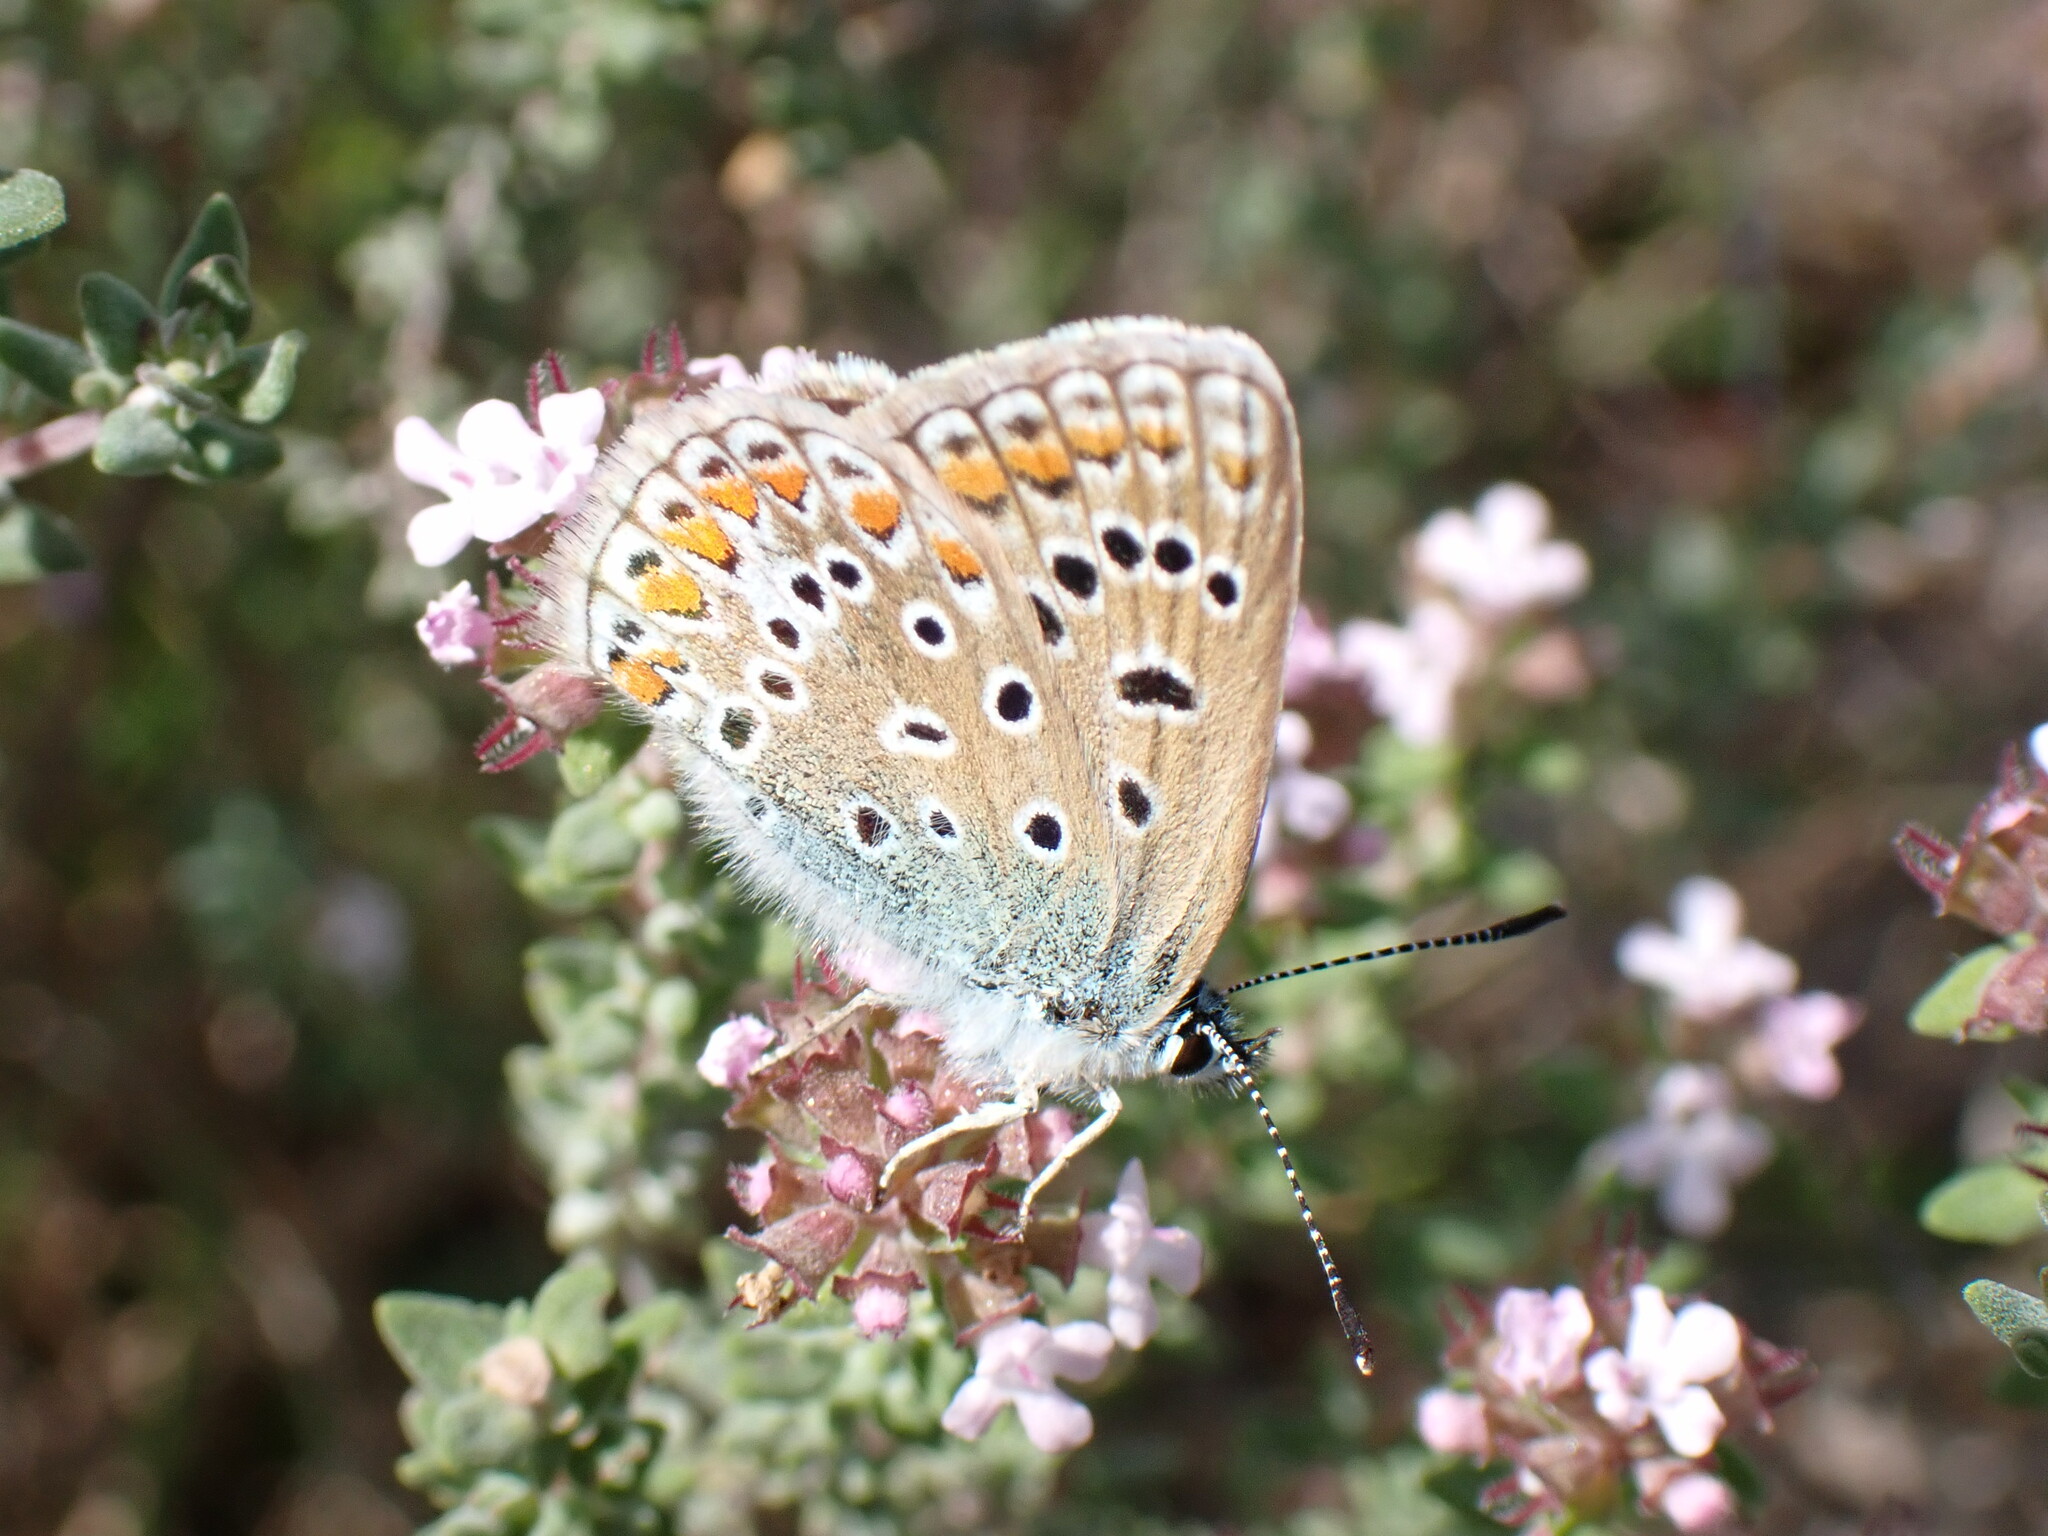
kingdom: Animalia
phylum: Arthropoda
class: Insecta
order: Lepidoptera
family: Lycaenidae
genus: Polyommatus
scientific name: Polyommatus icarus
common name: Common blue
